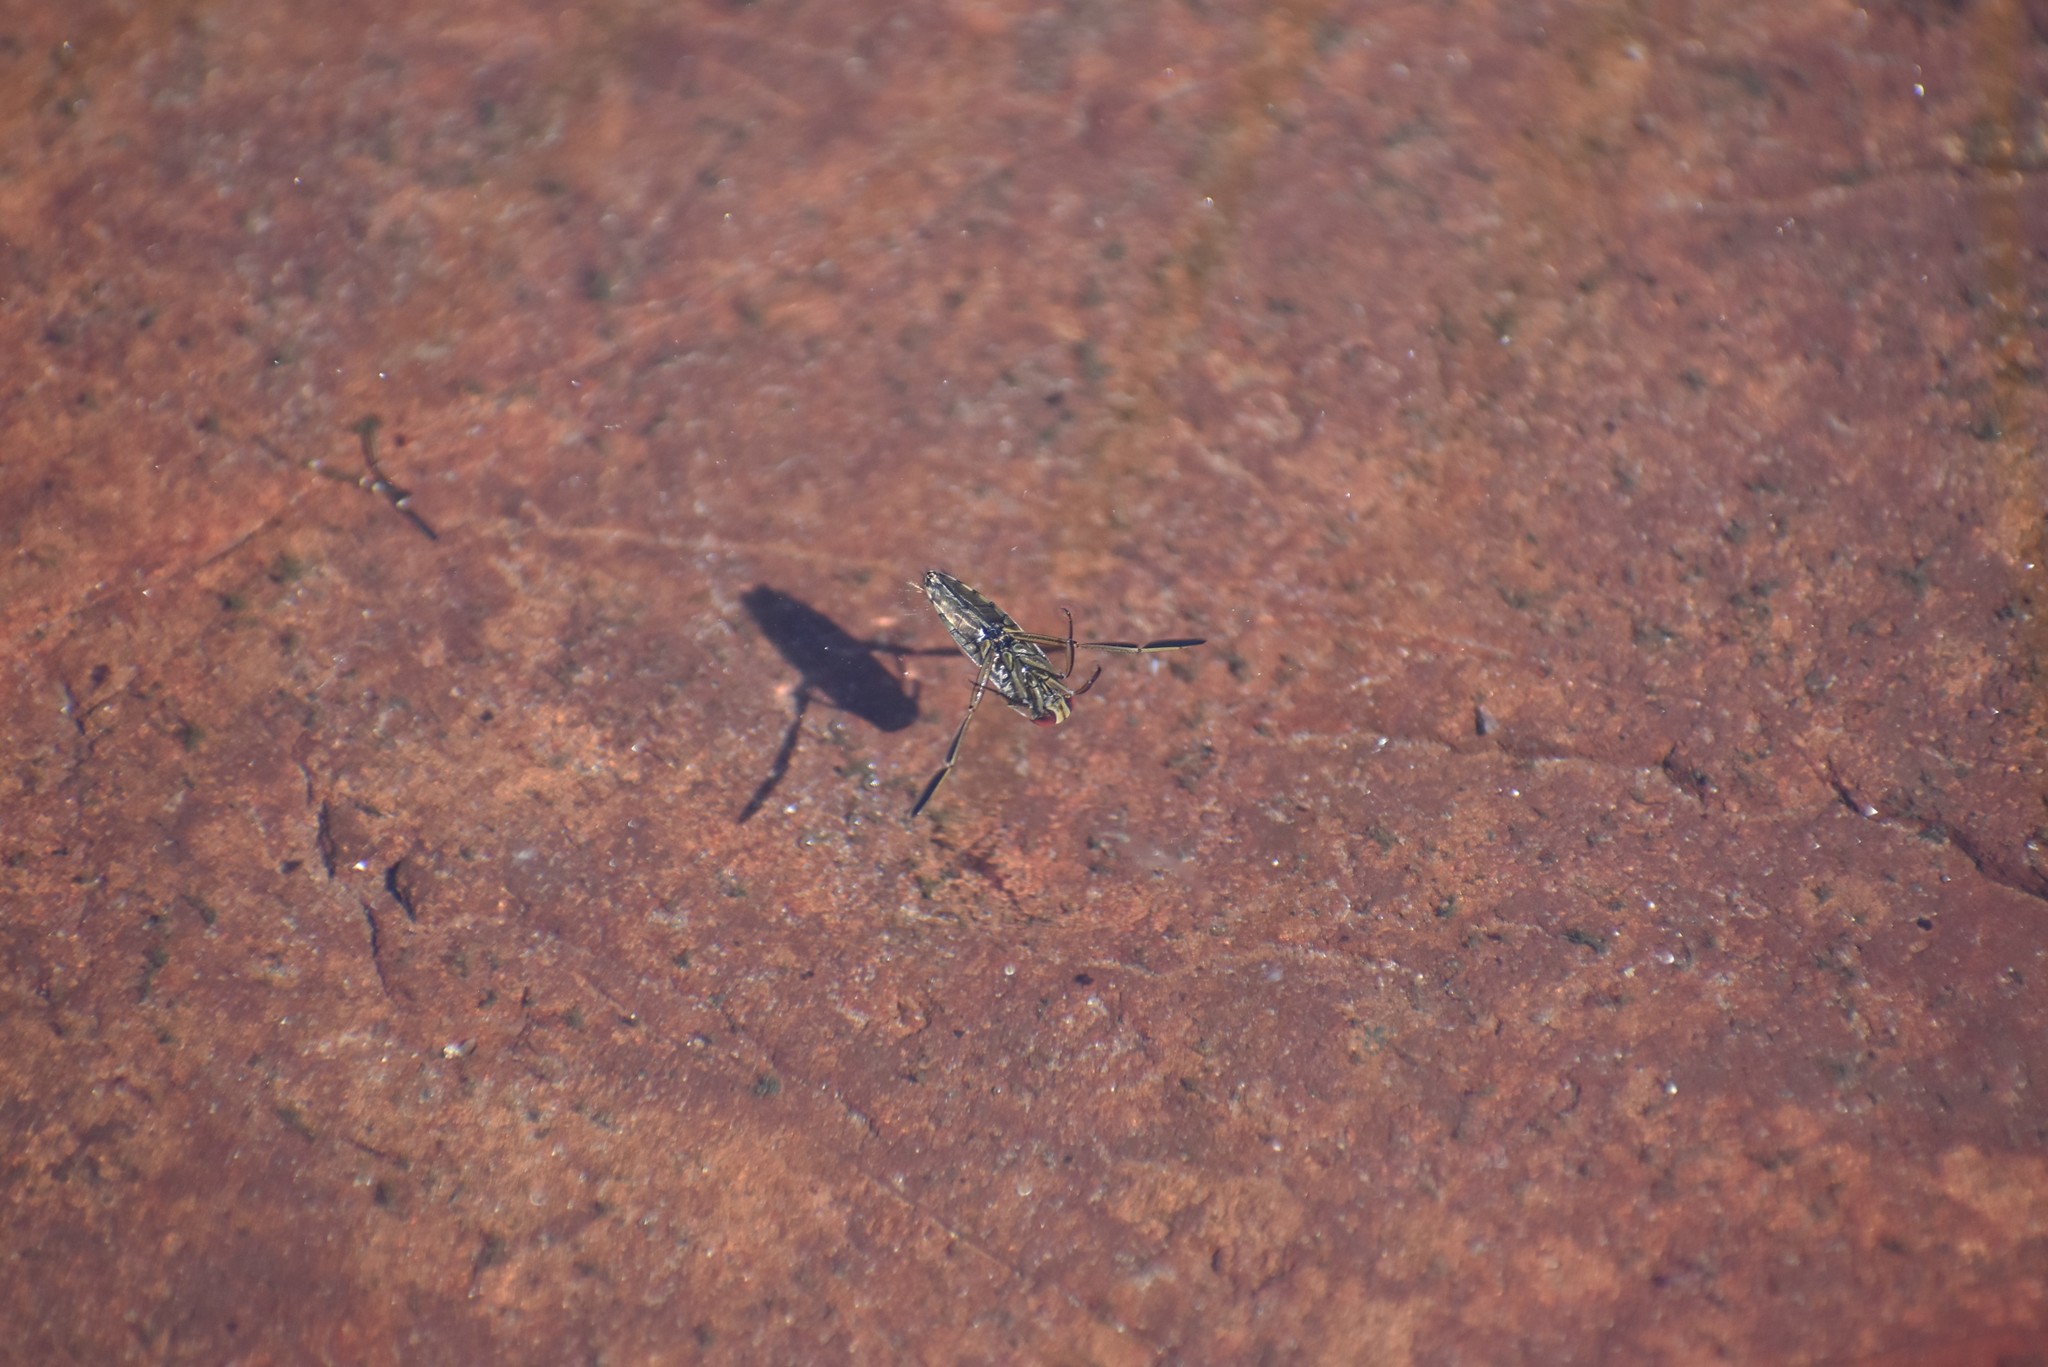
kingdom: Animalia
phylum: Arthropoda
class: Insecta
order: Hemiptera
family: Notonectidae
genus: Notonecta
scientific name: Notonecta
